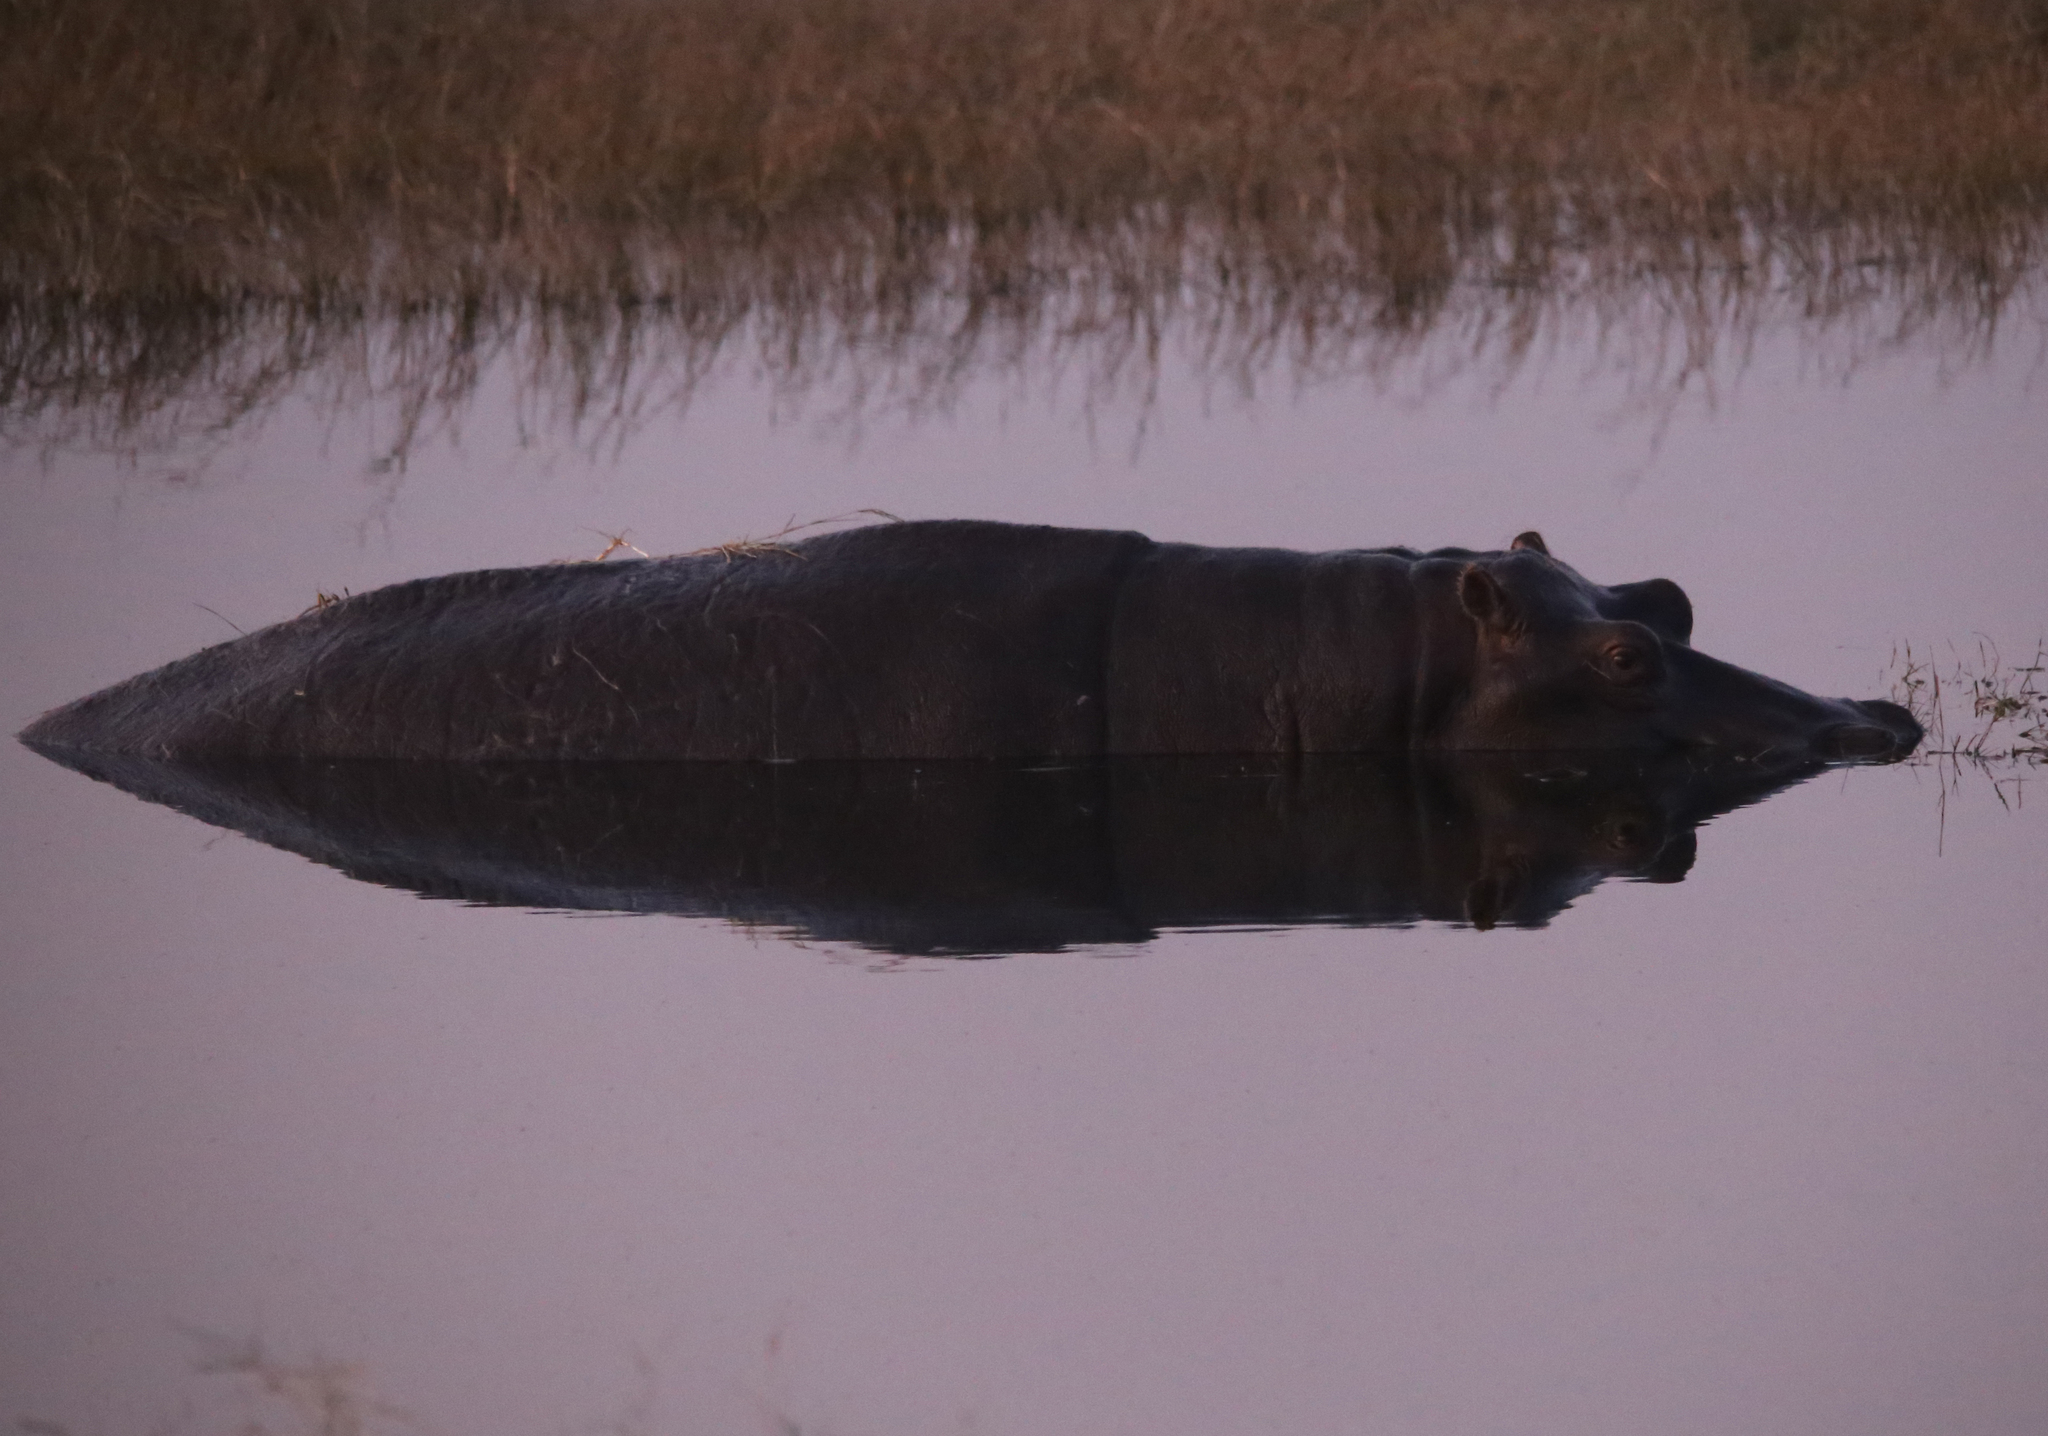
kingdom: Animalia
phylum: Chordata
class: Mammalia
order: Artiodactyla
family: Hippopotamidae
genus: Hippopotamus
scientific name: Hippopotamus amphibius
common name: Common hippopotamus
